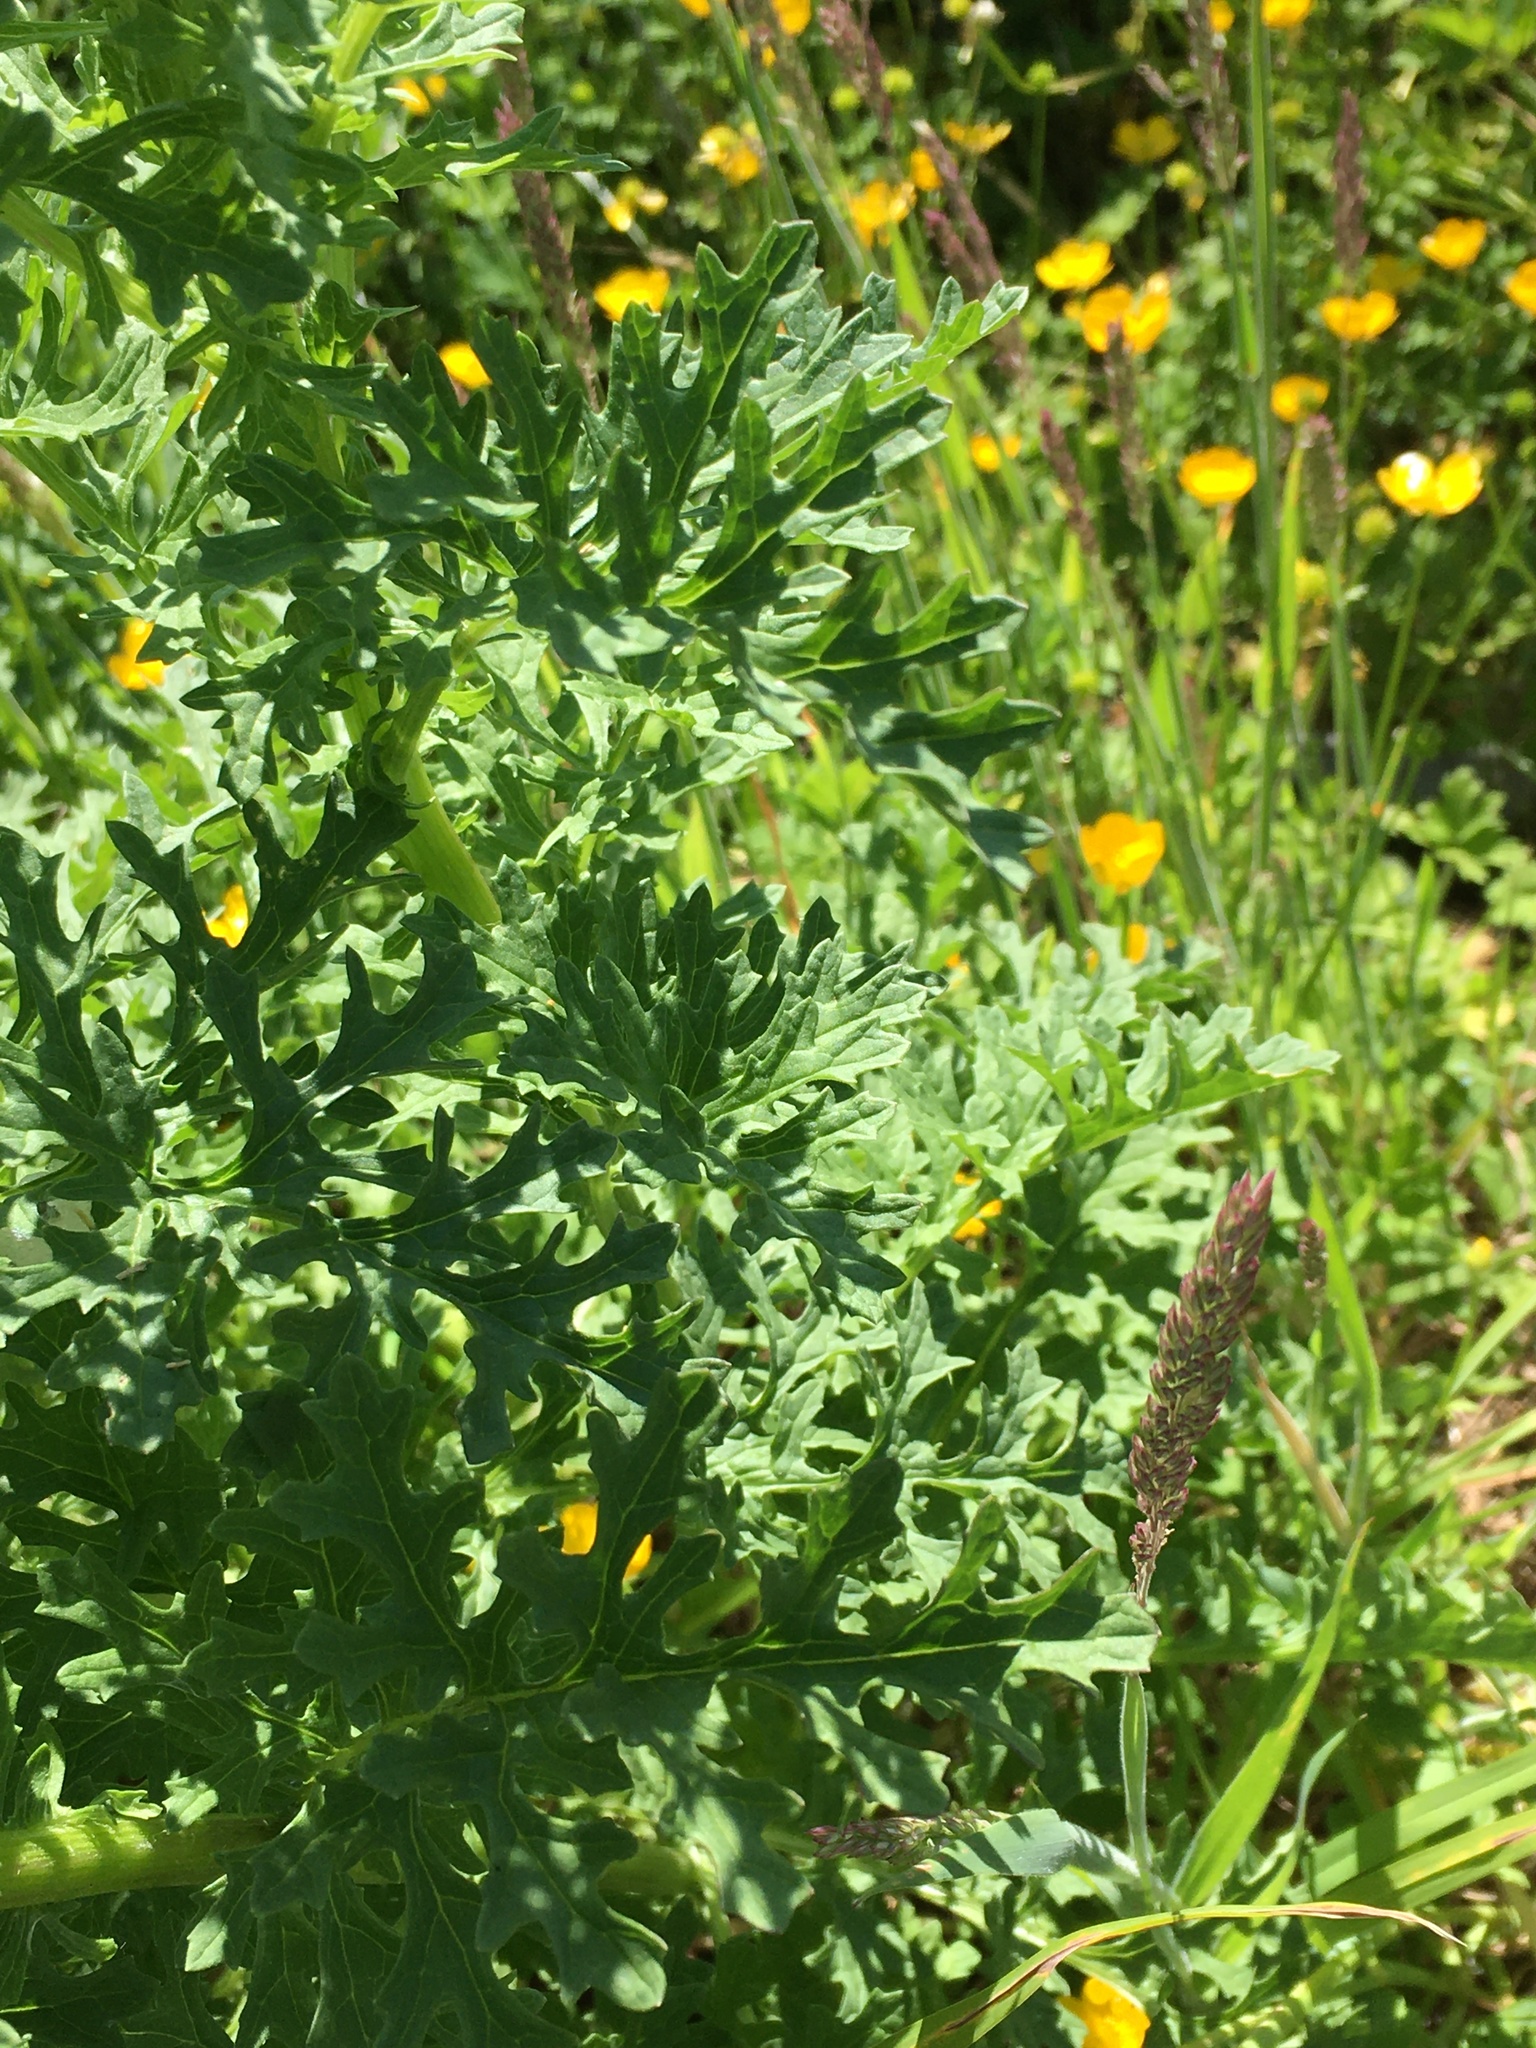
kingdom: Plantae
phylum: Tracheophyta
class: Magnoliopsida
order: Asterales
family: Asteraceae
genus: Jacobaea
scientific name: Jacobaea vulgaris
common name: Stinking willie
